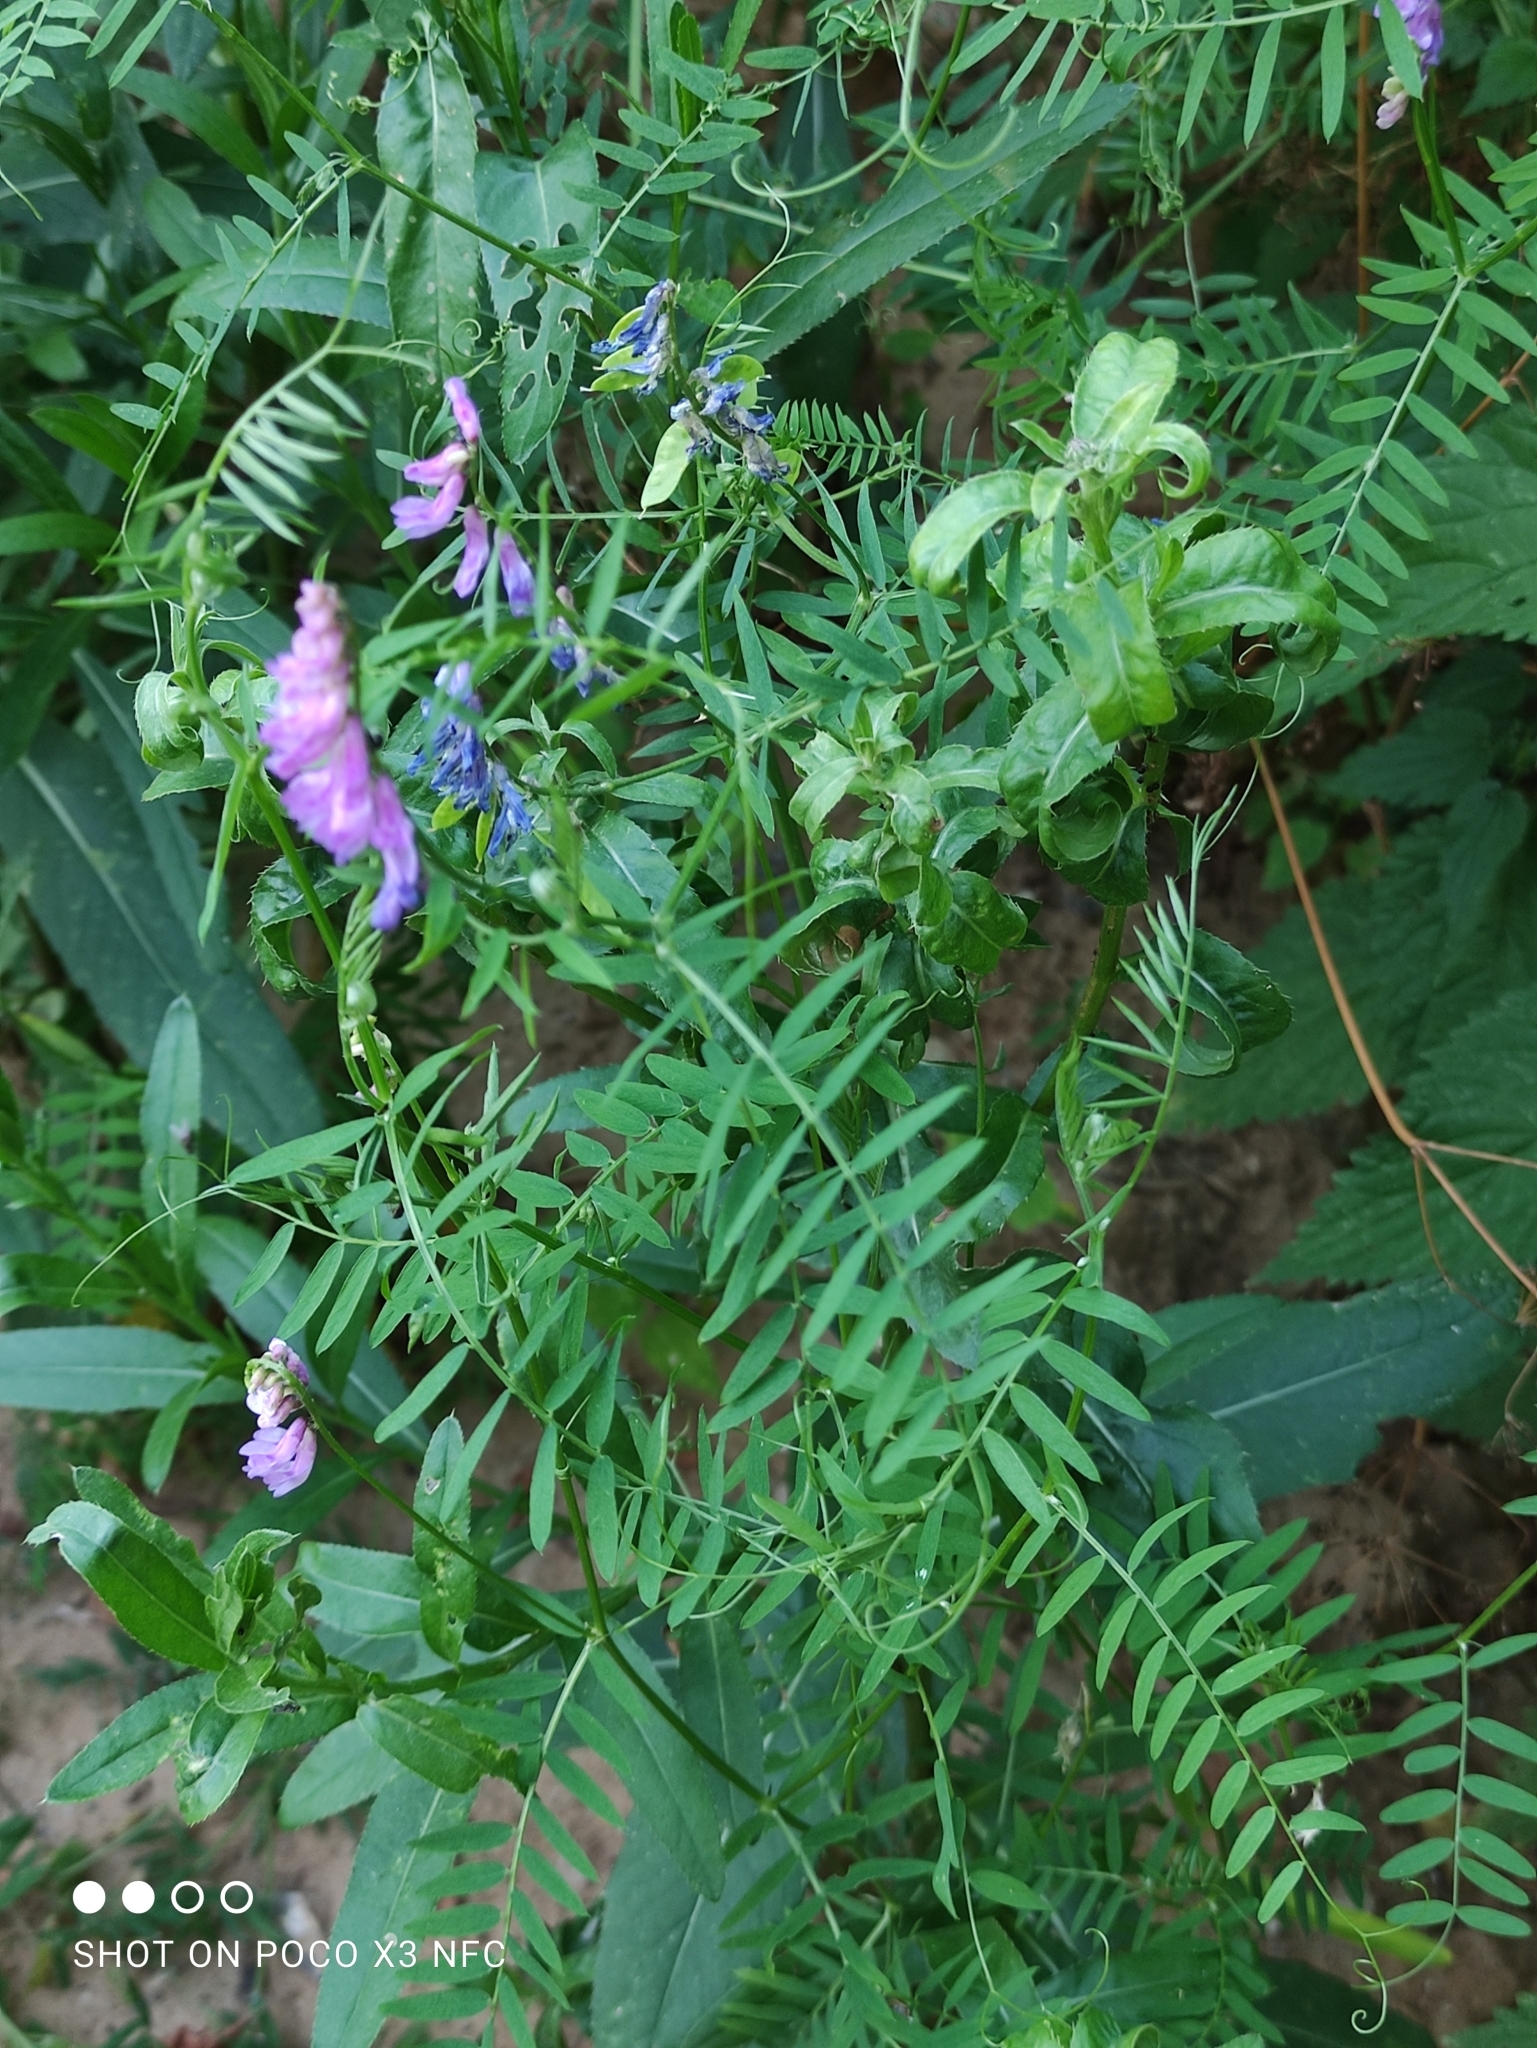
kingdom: Plantae
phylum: Tracheophyta
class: Magnoliopsida
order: Fabales
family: Fabaceae
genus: Vicia
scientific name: Vicia cracca
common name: Bird vetch
